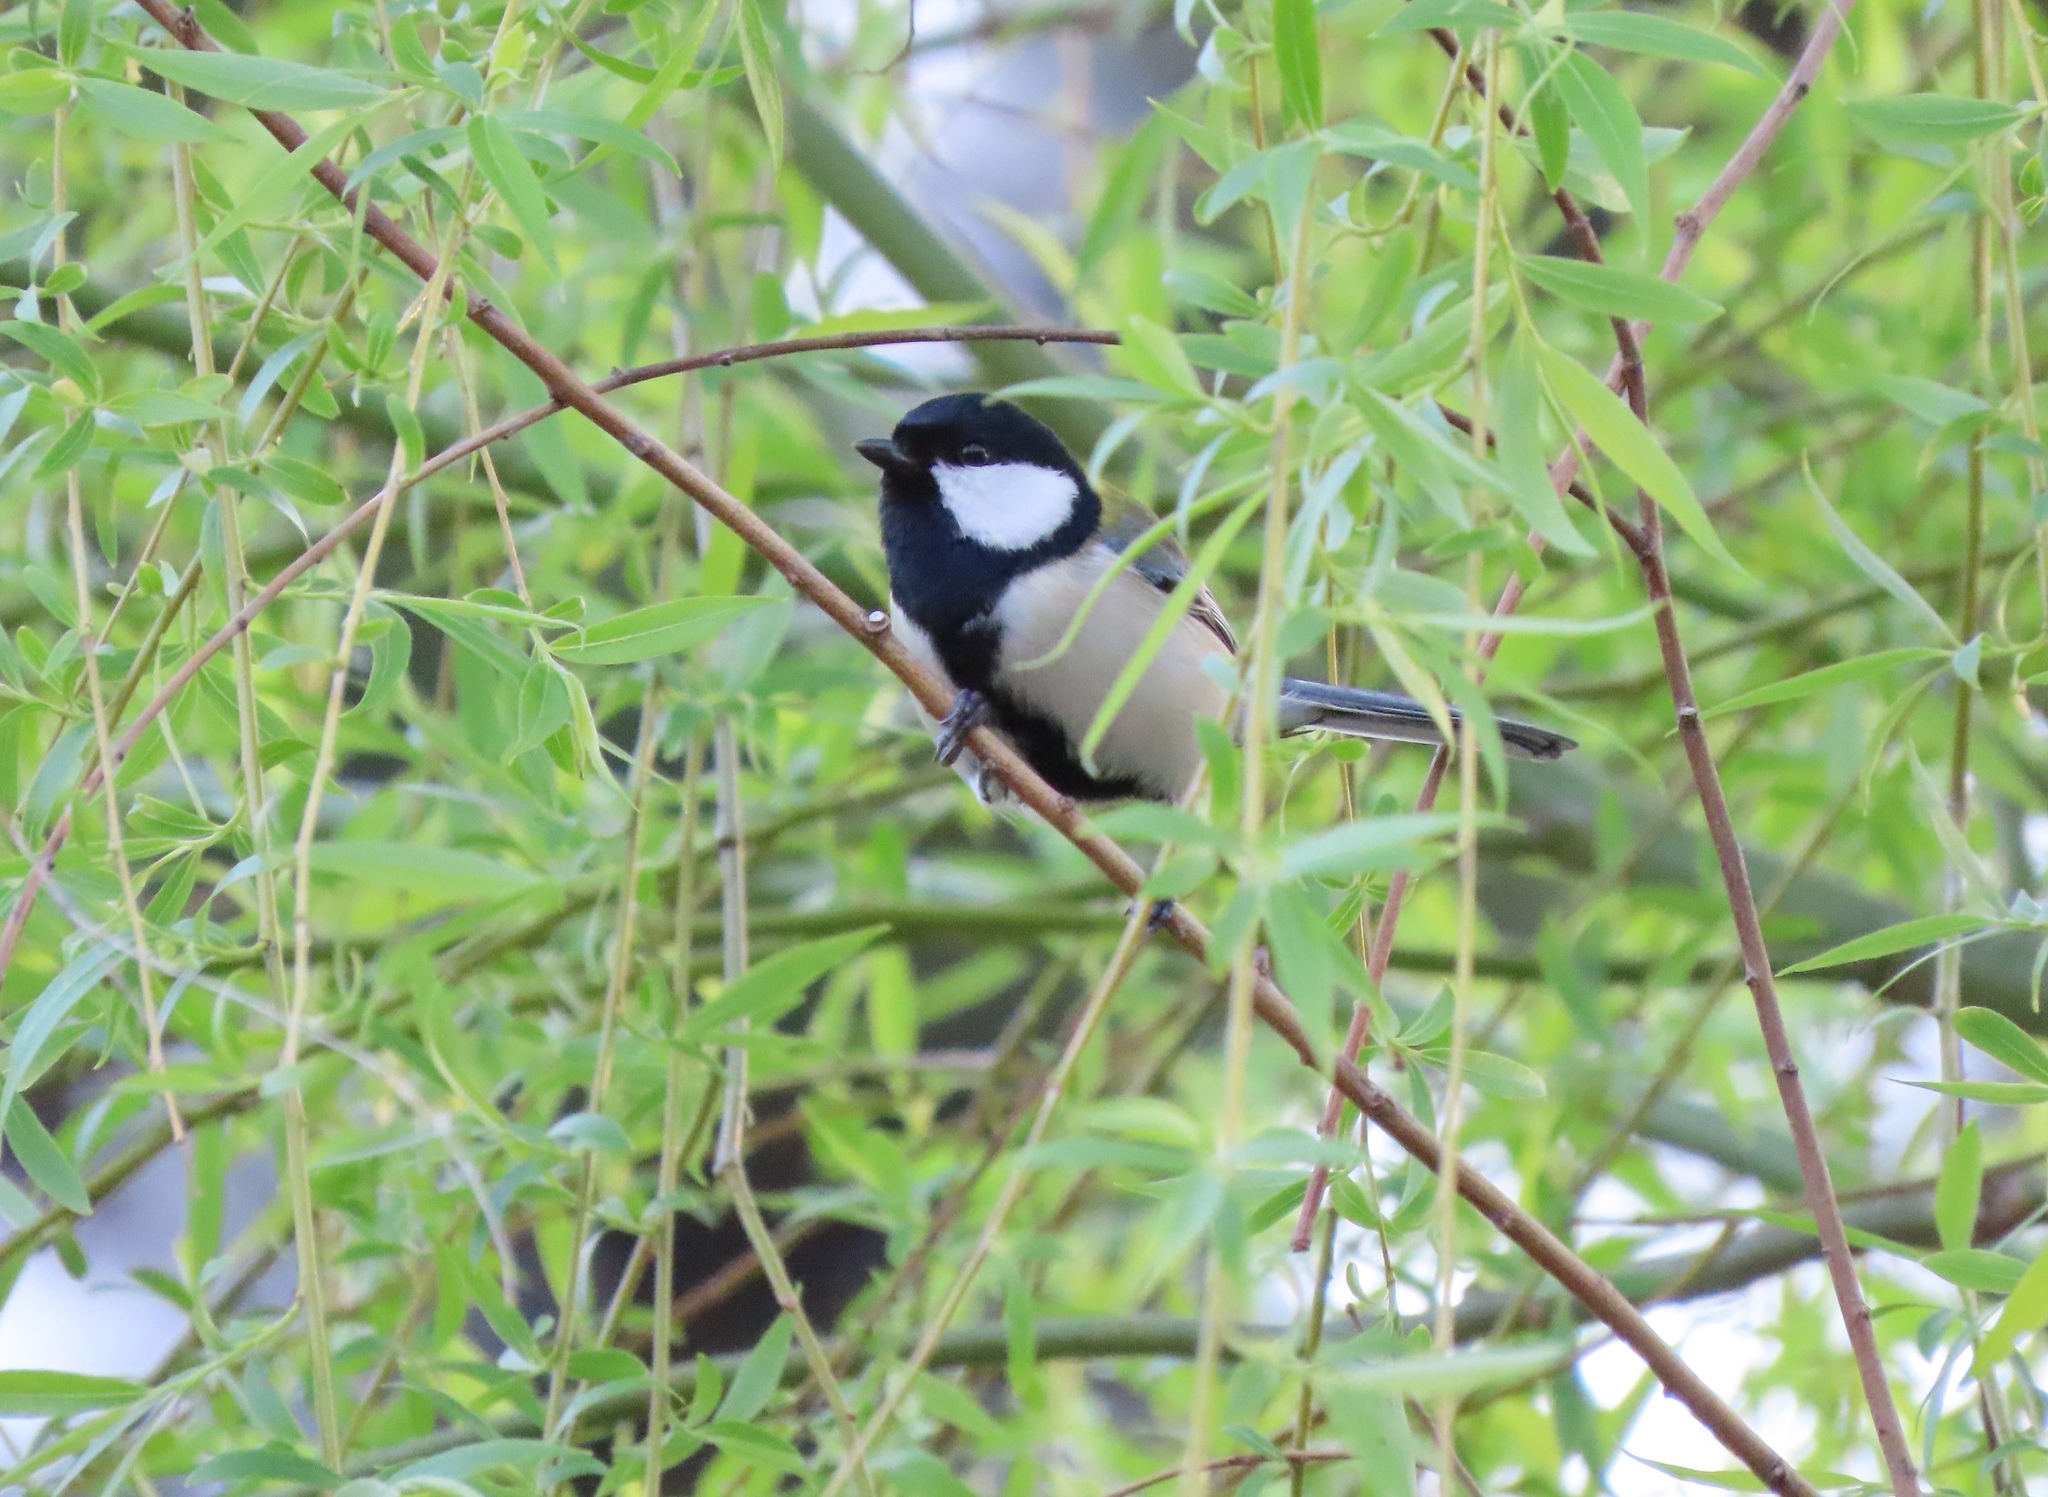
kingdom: Animalia
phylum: Chordata
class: Aves
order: Passeriformes
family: Paridae
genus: Parus
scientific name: Parus minor
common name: Japanese tit
